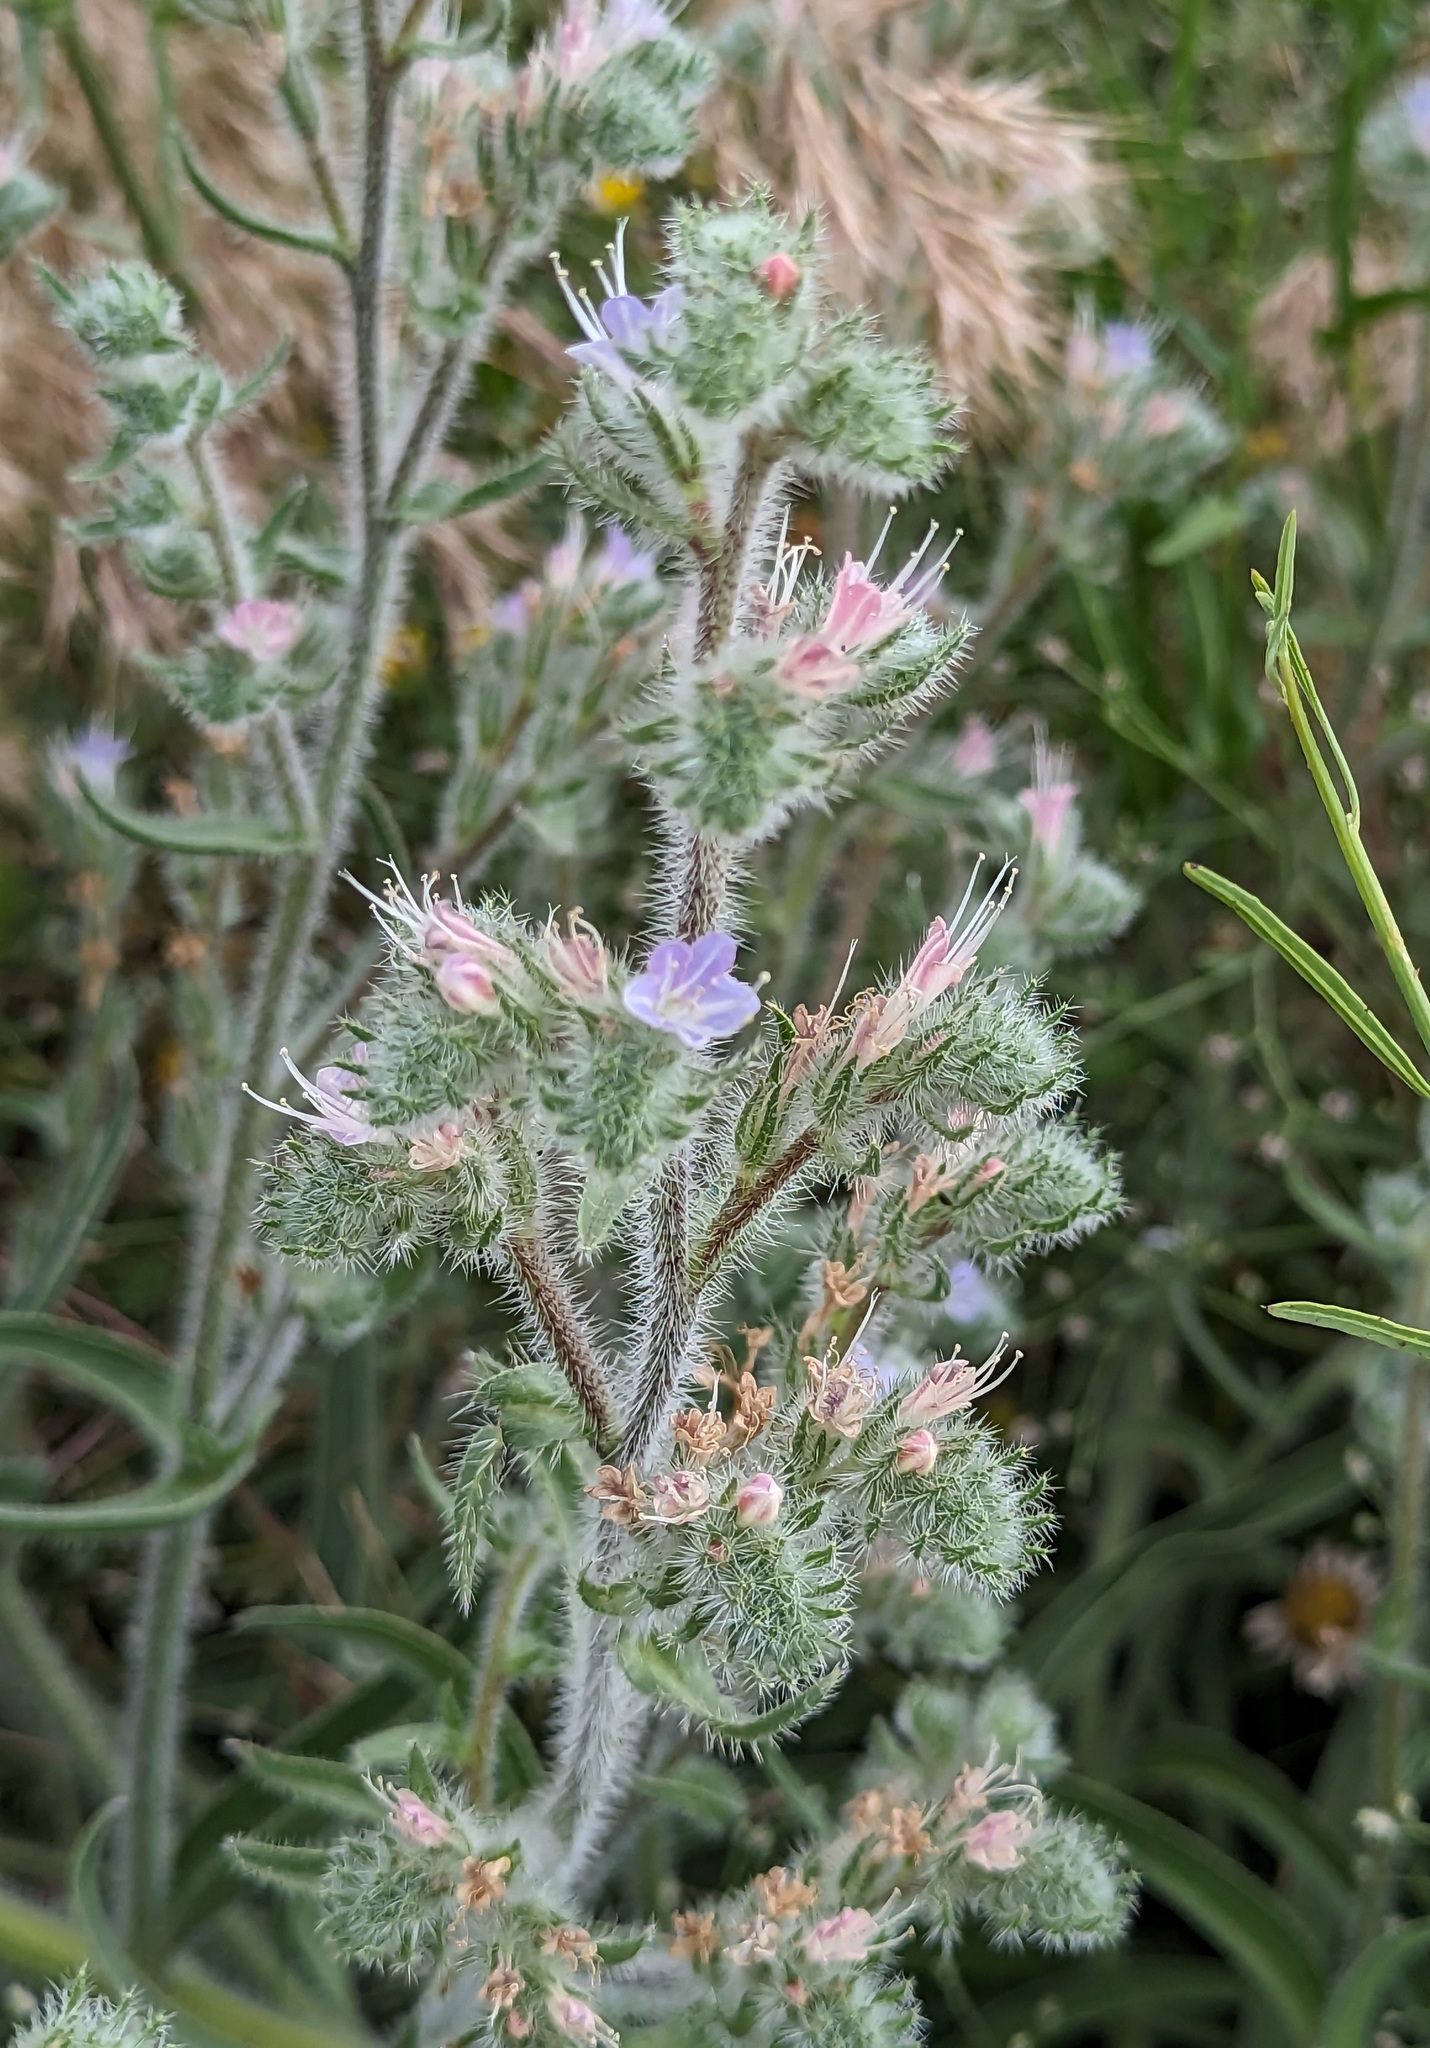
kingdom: Plantae
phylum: Tracheophyta
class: Magnoliopsida
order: Boraginales
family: Boraginaceae
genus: Echium
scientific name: Echium italicum
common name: Italian viper's bugloss
